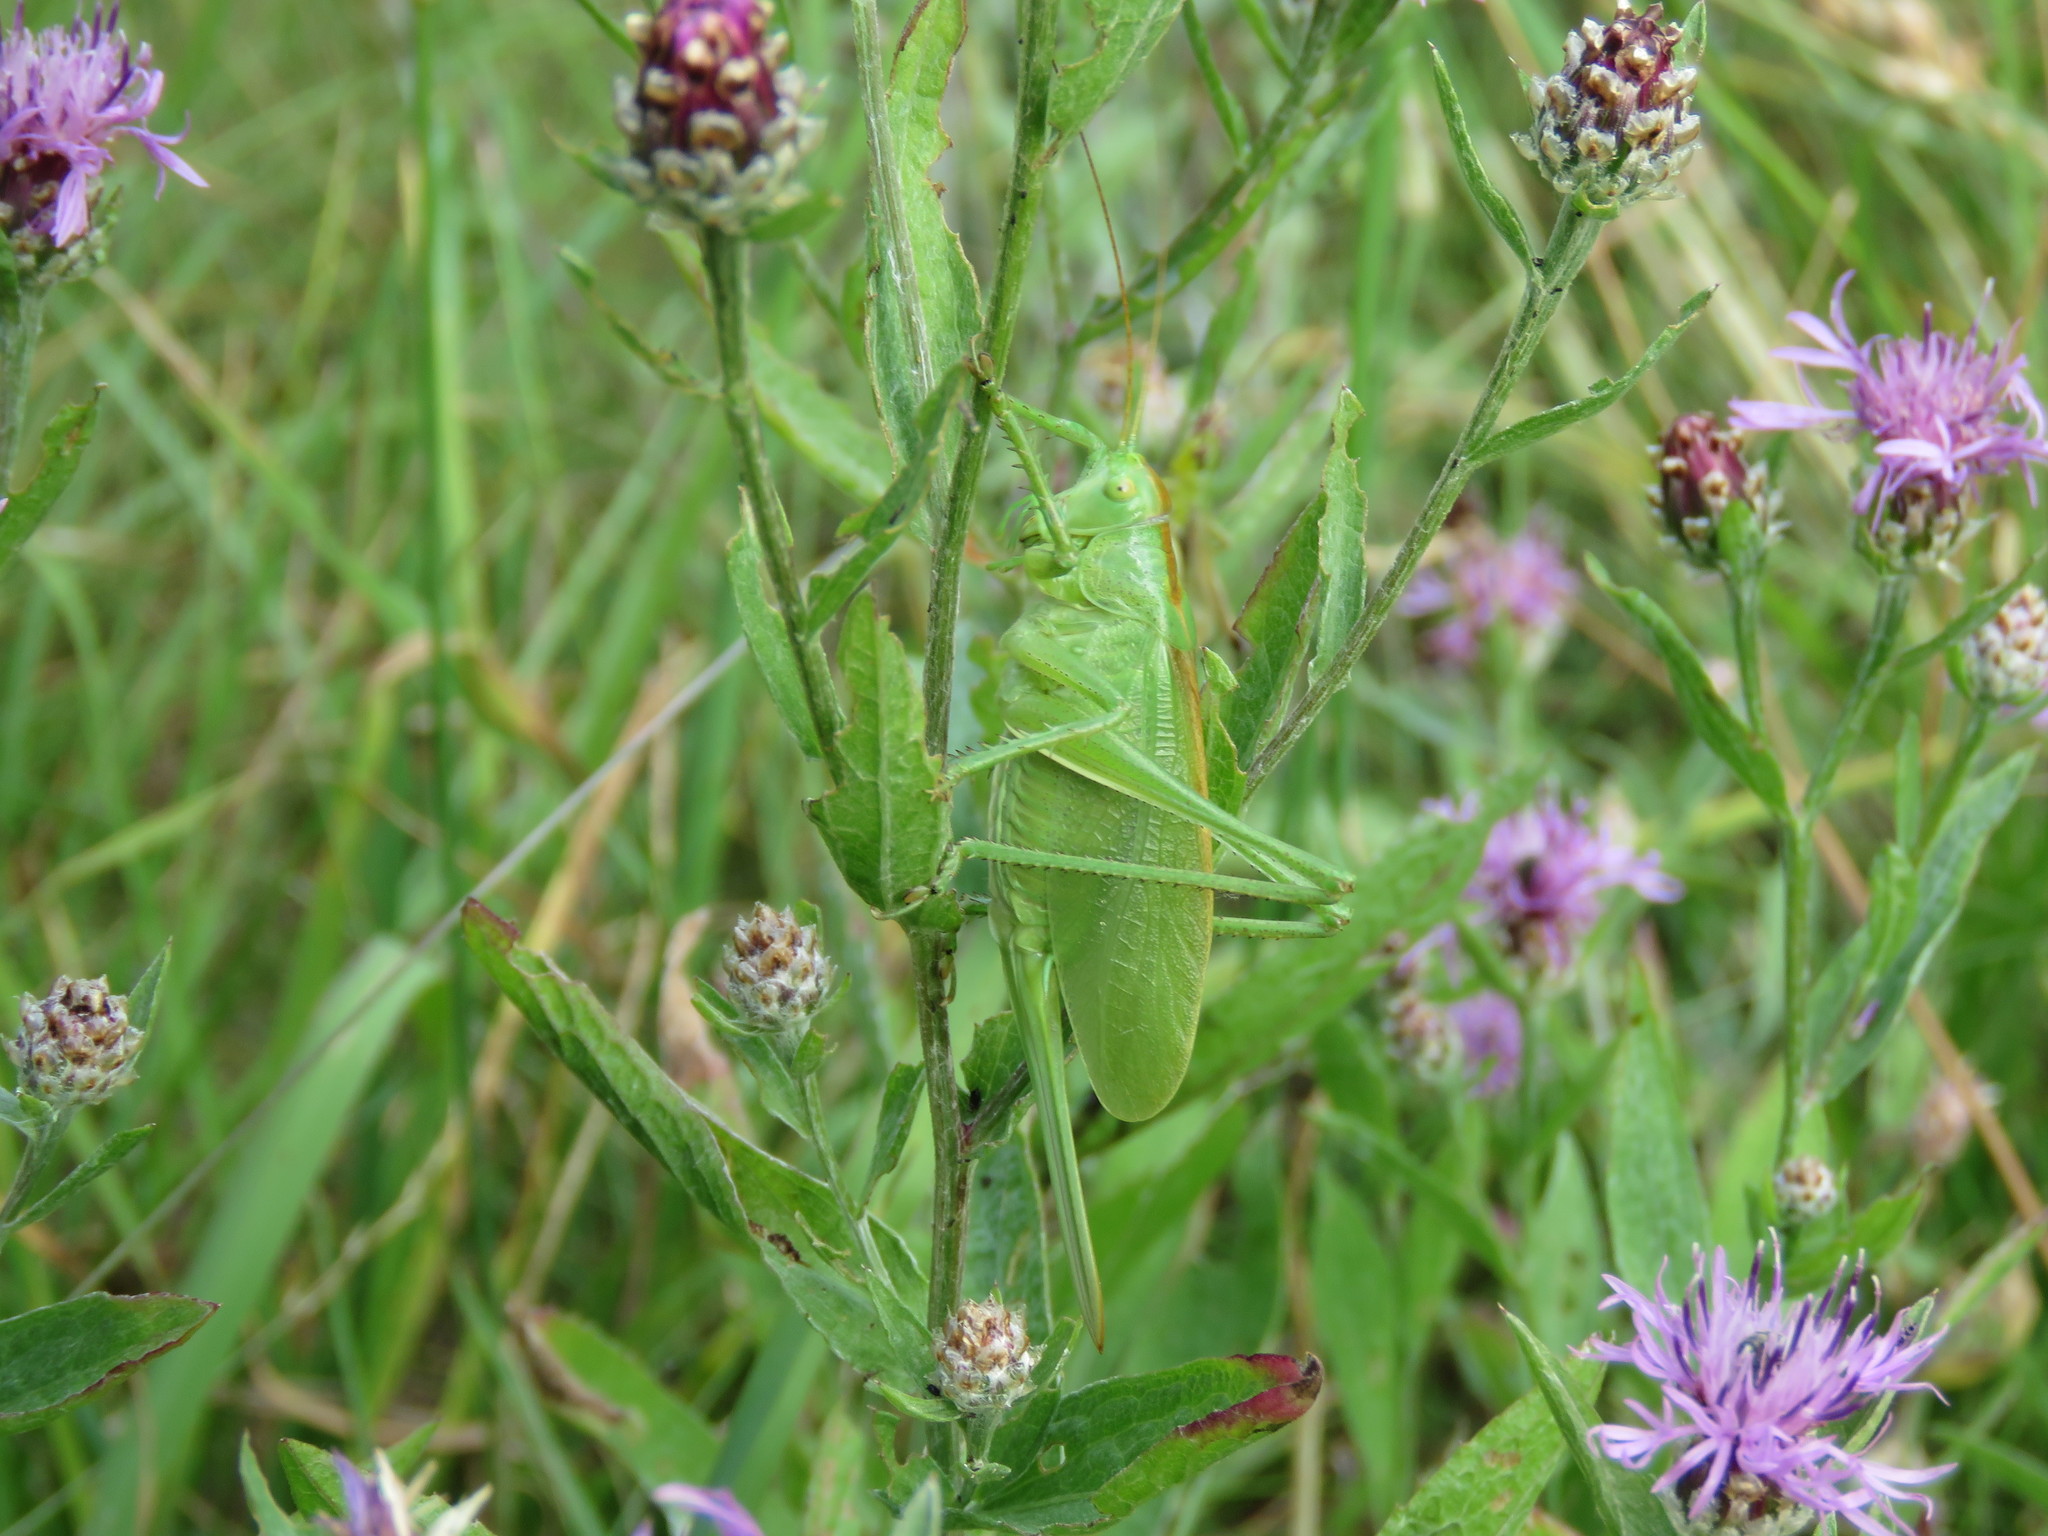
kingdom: Animalia
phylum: Arthropoda
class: Insecta
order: Orthoptera
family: Tettigoniidae
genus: Tettigonia
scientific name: Tettigonia cantans
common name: Upland green bush-cricket
